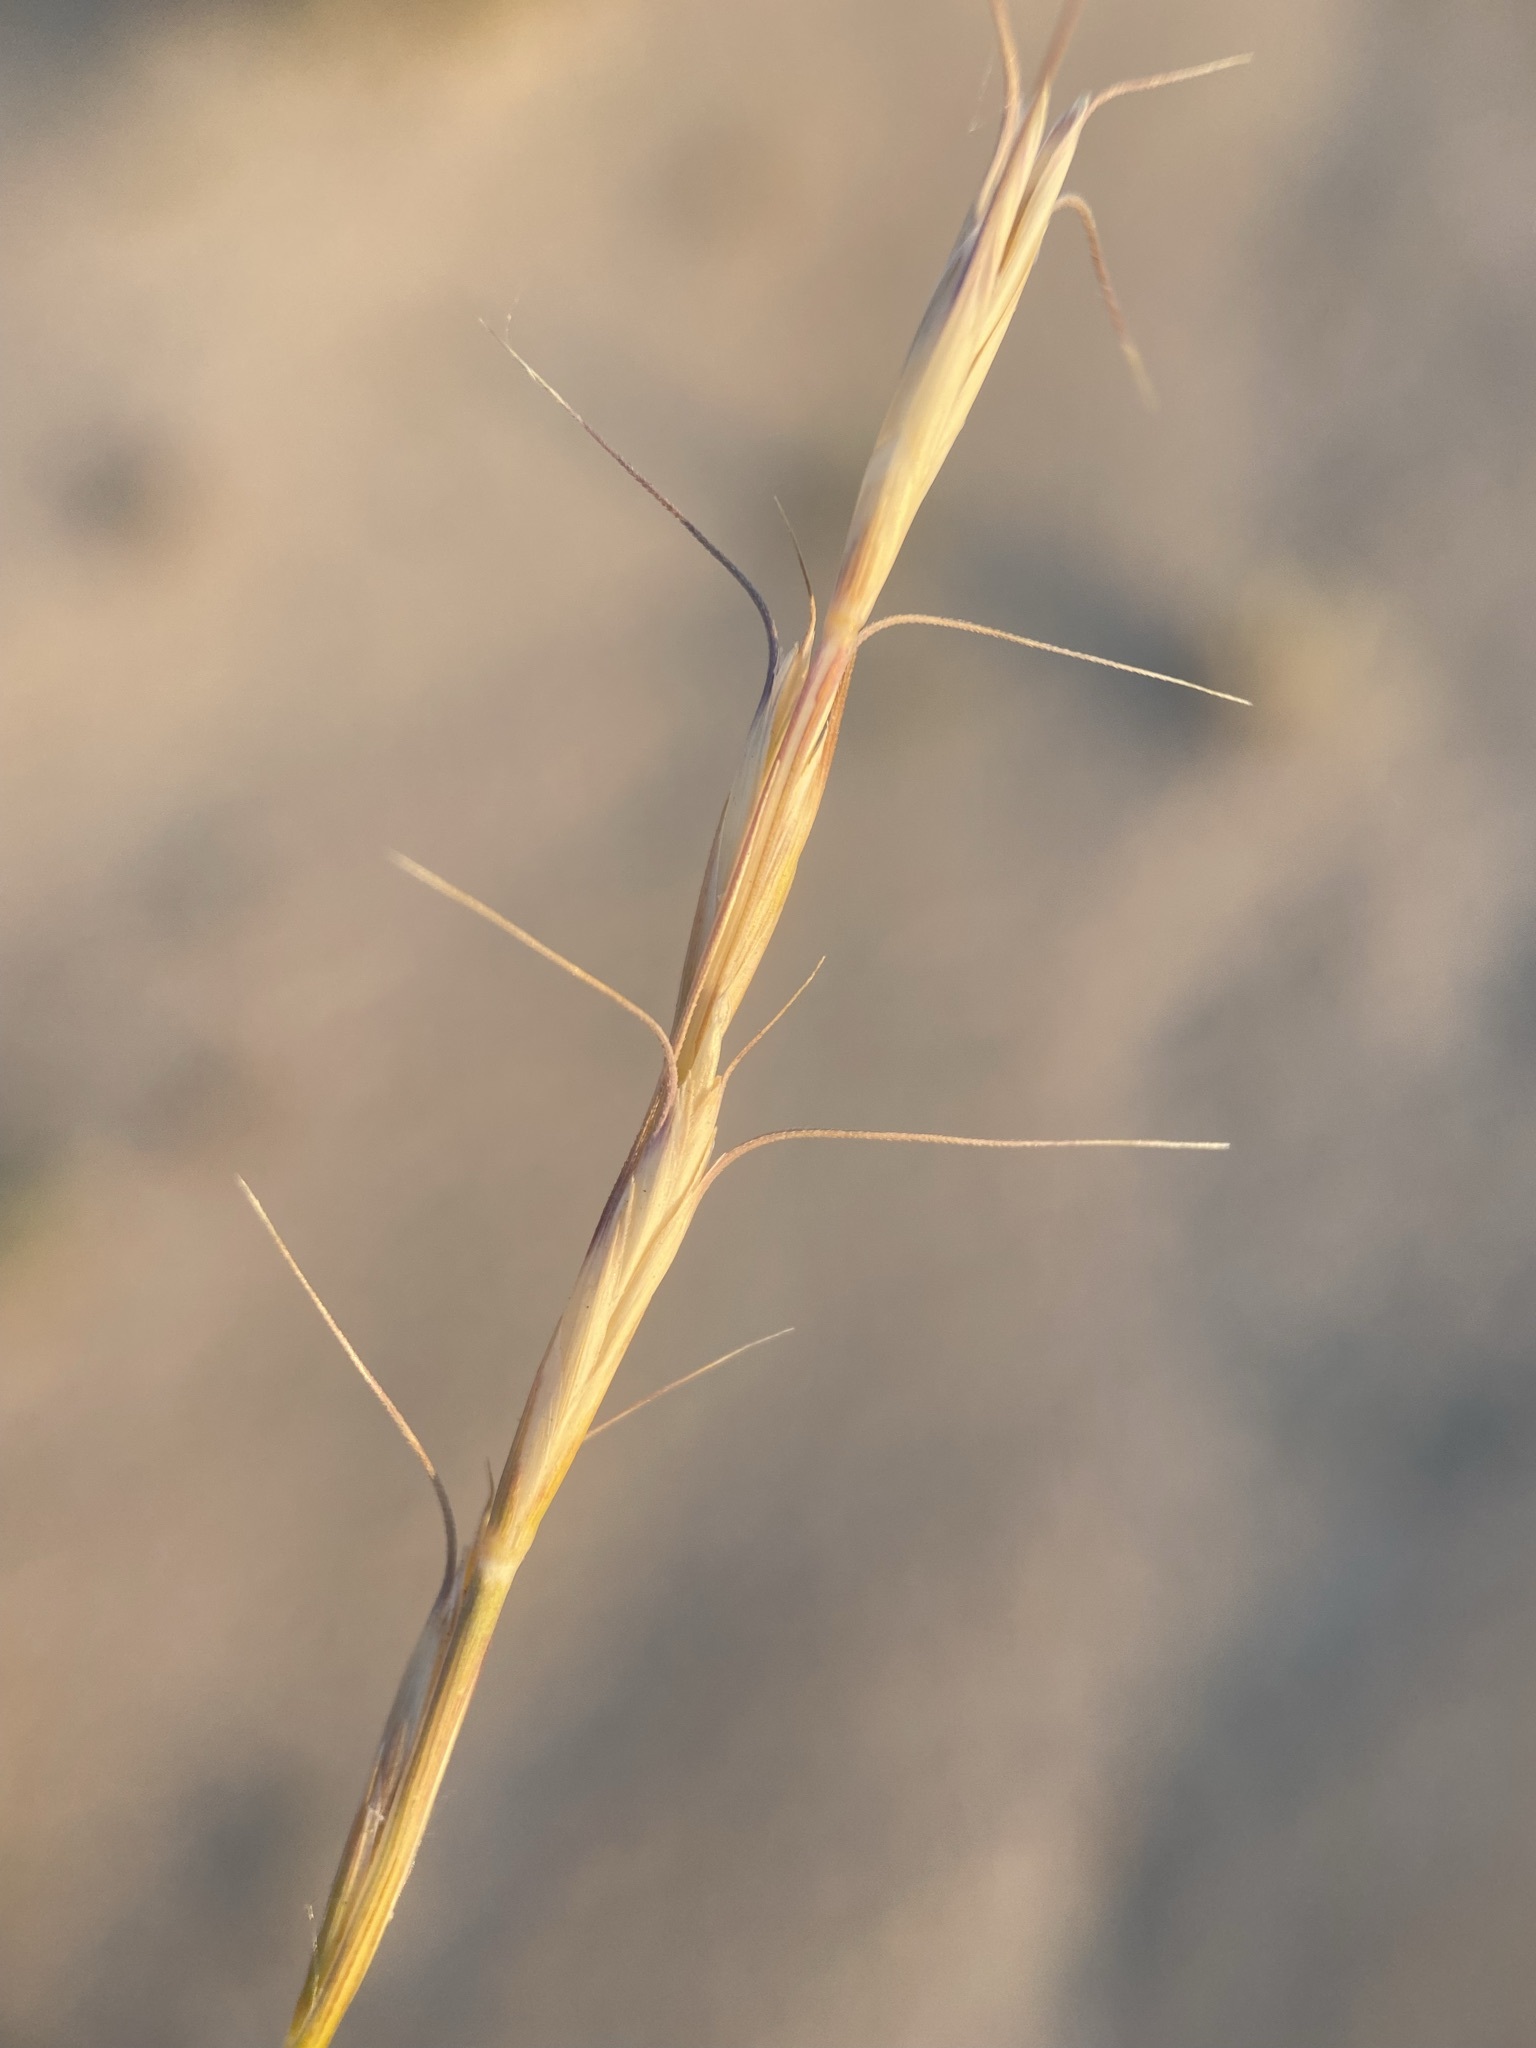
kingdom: Plantae
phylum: Tracheophyta
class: Liliopsida
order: Poales
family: Poaceae
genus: Pseudoroegneria
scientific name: Pseudoroegneria spicata
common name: Bluebunch wheatgrass
